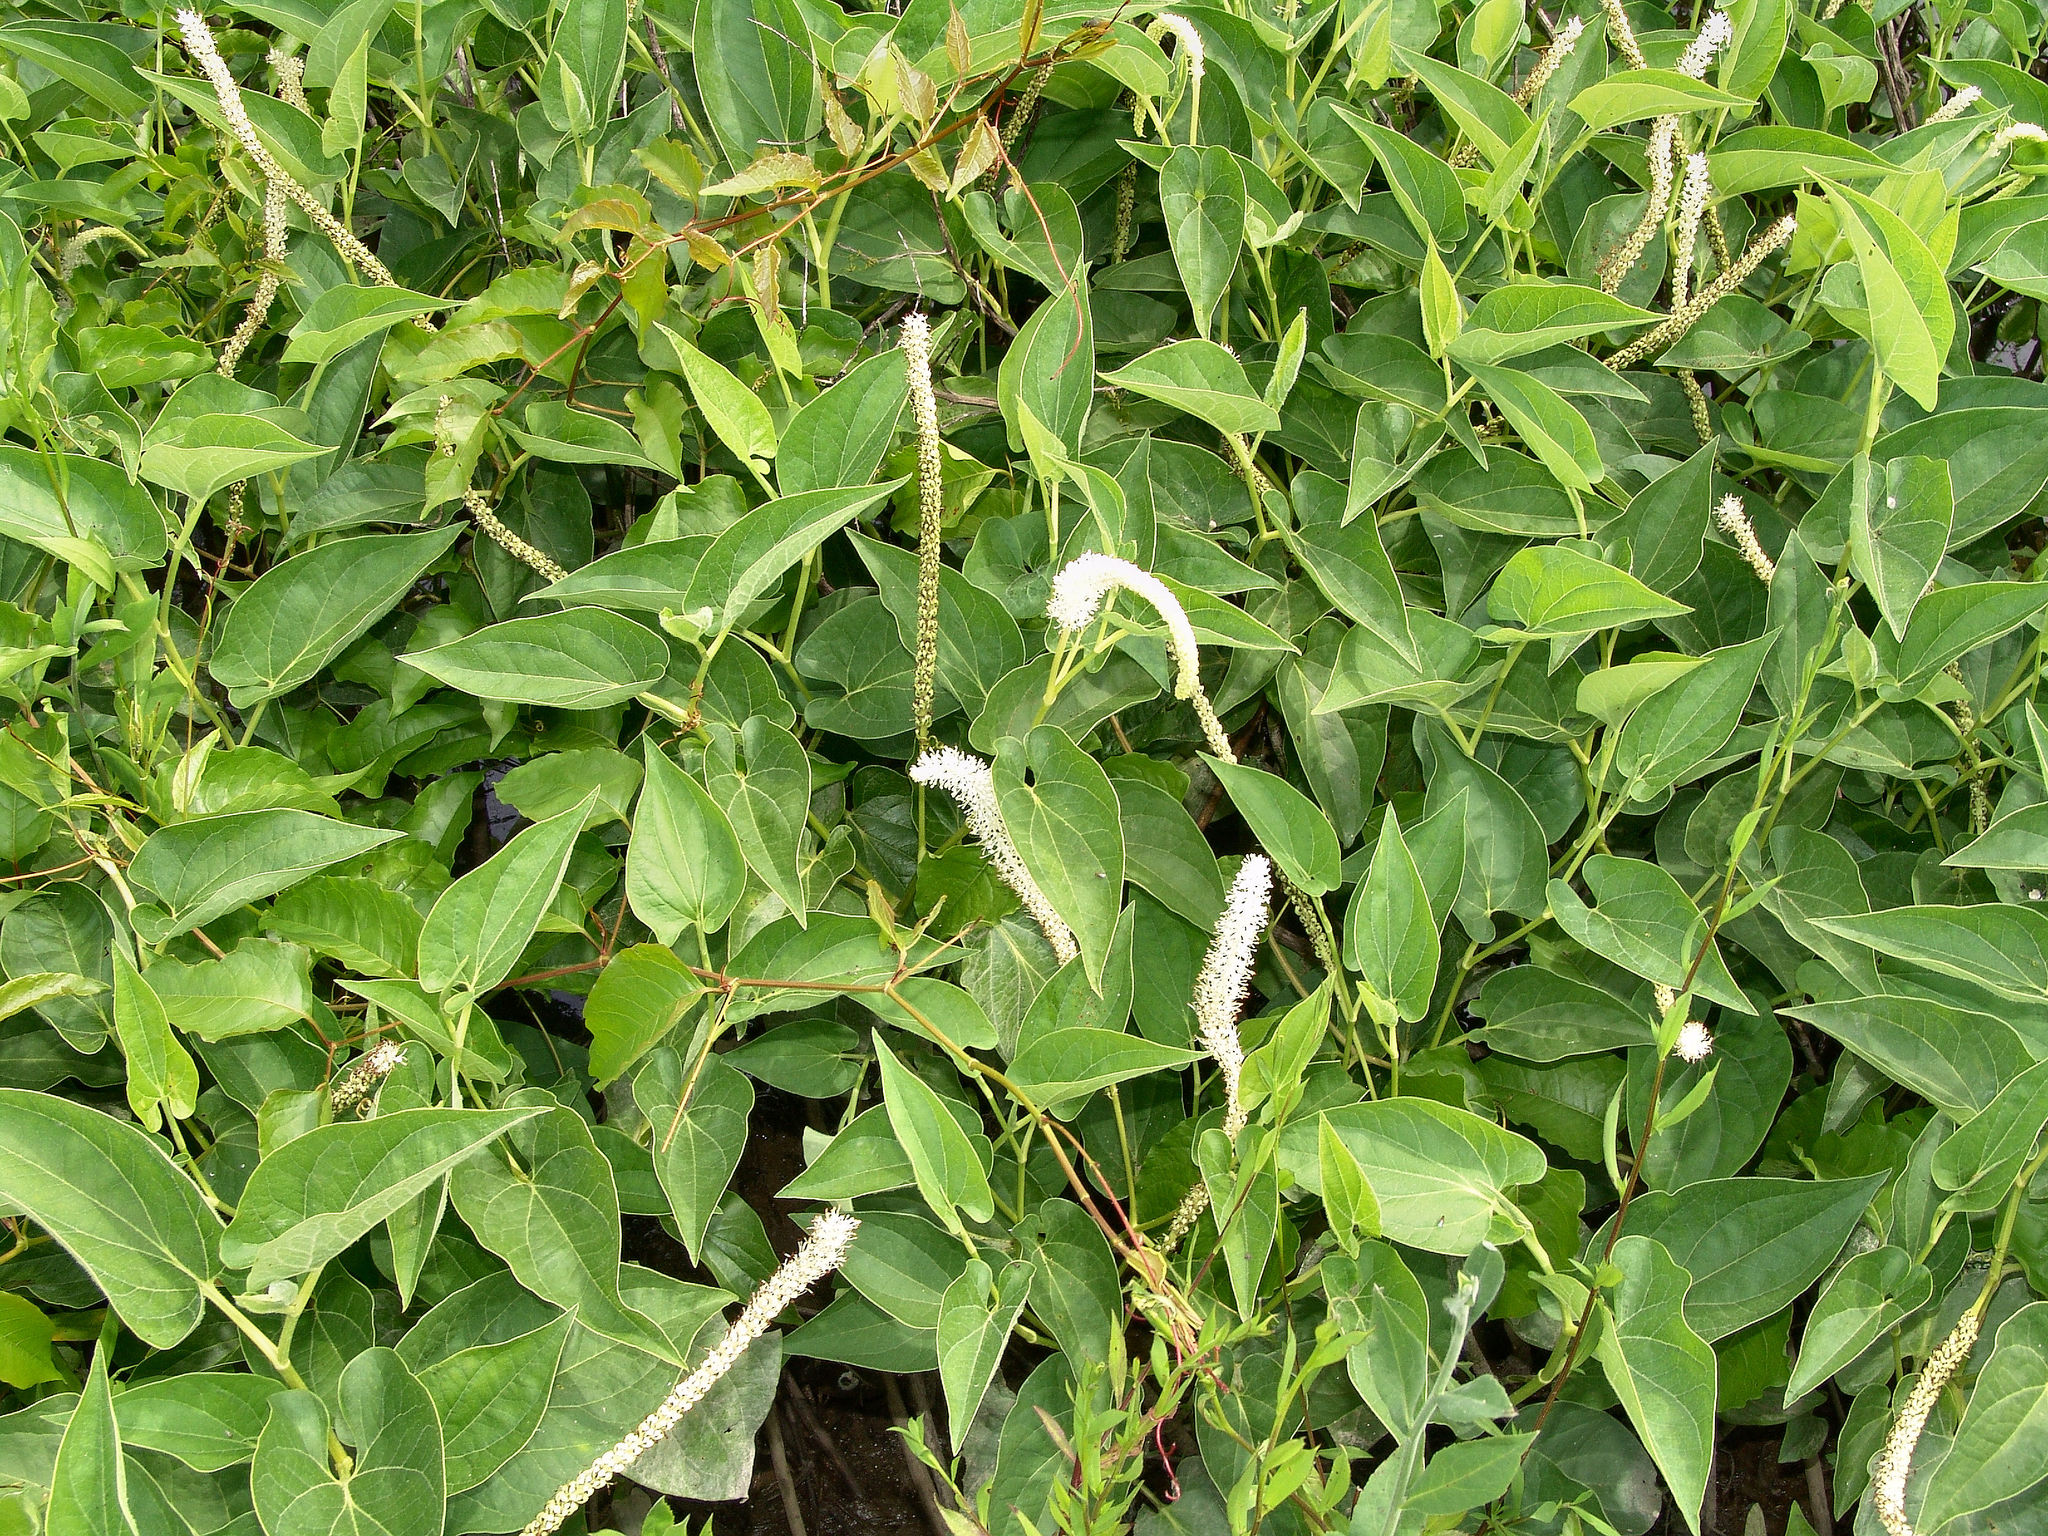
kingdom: Plantae
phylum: Tracheophyta
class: Magnoliopsida
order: Piperales
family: Saururaceae
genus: Saururus
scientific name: Saururus cernuus
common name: Lizard's-tail
